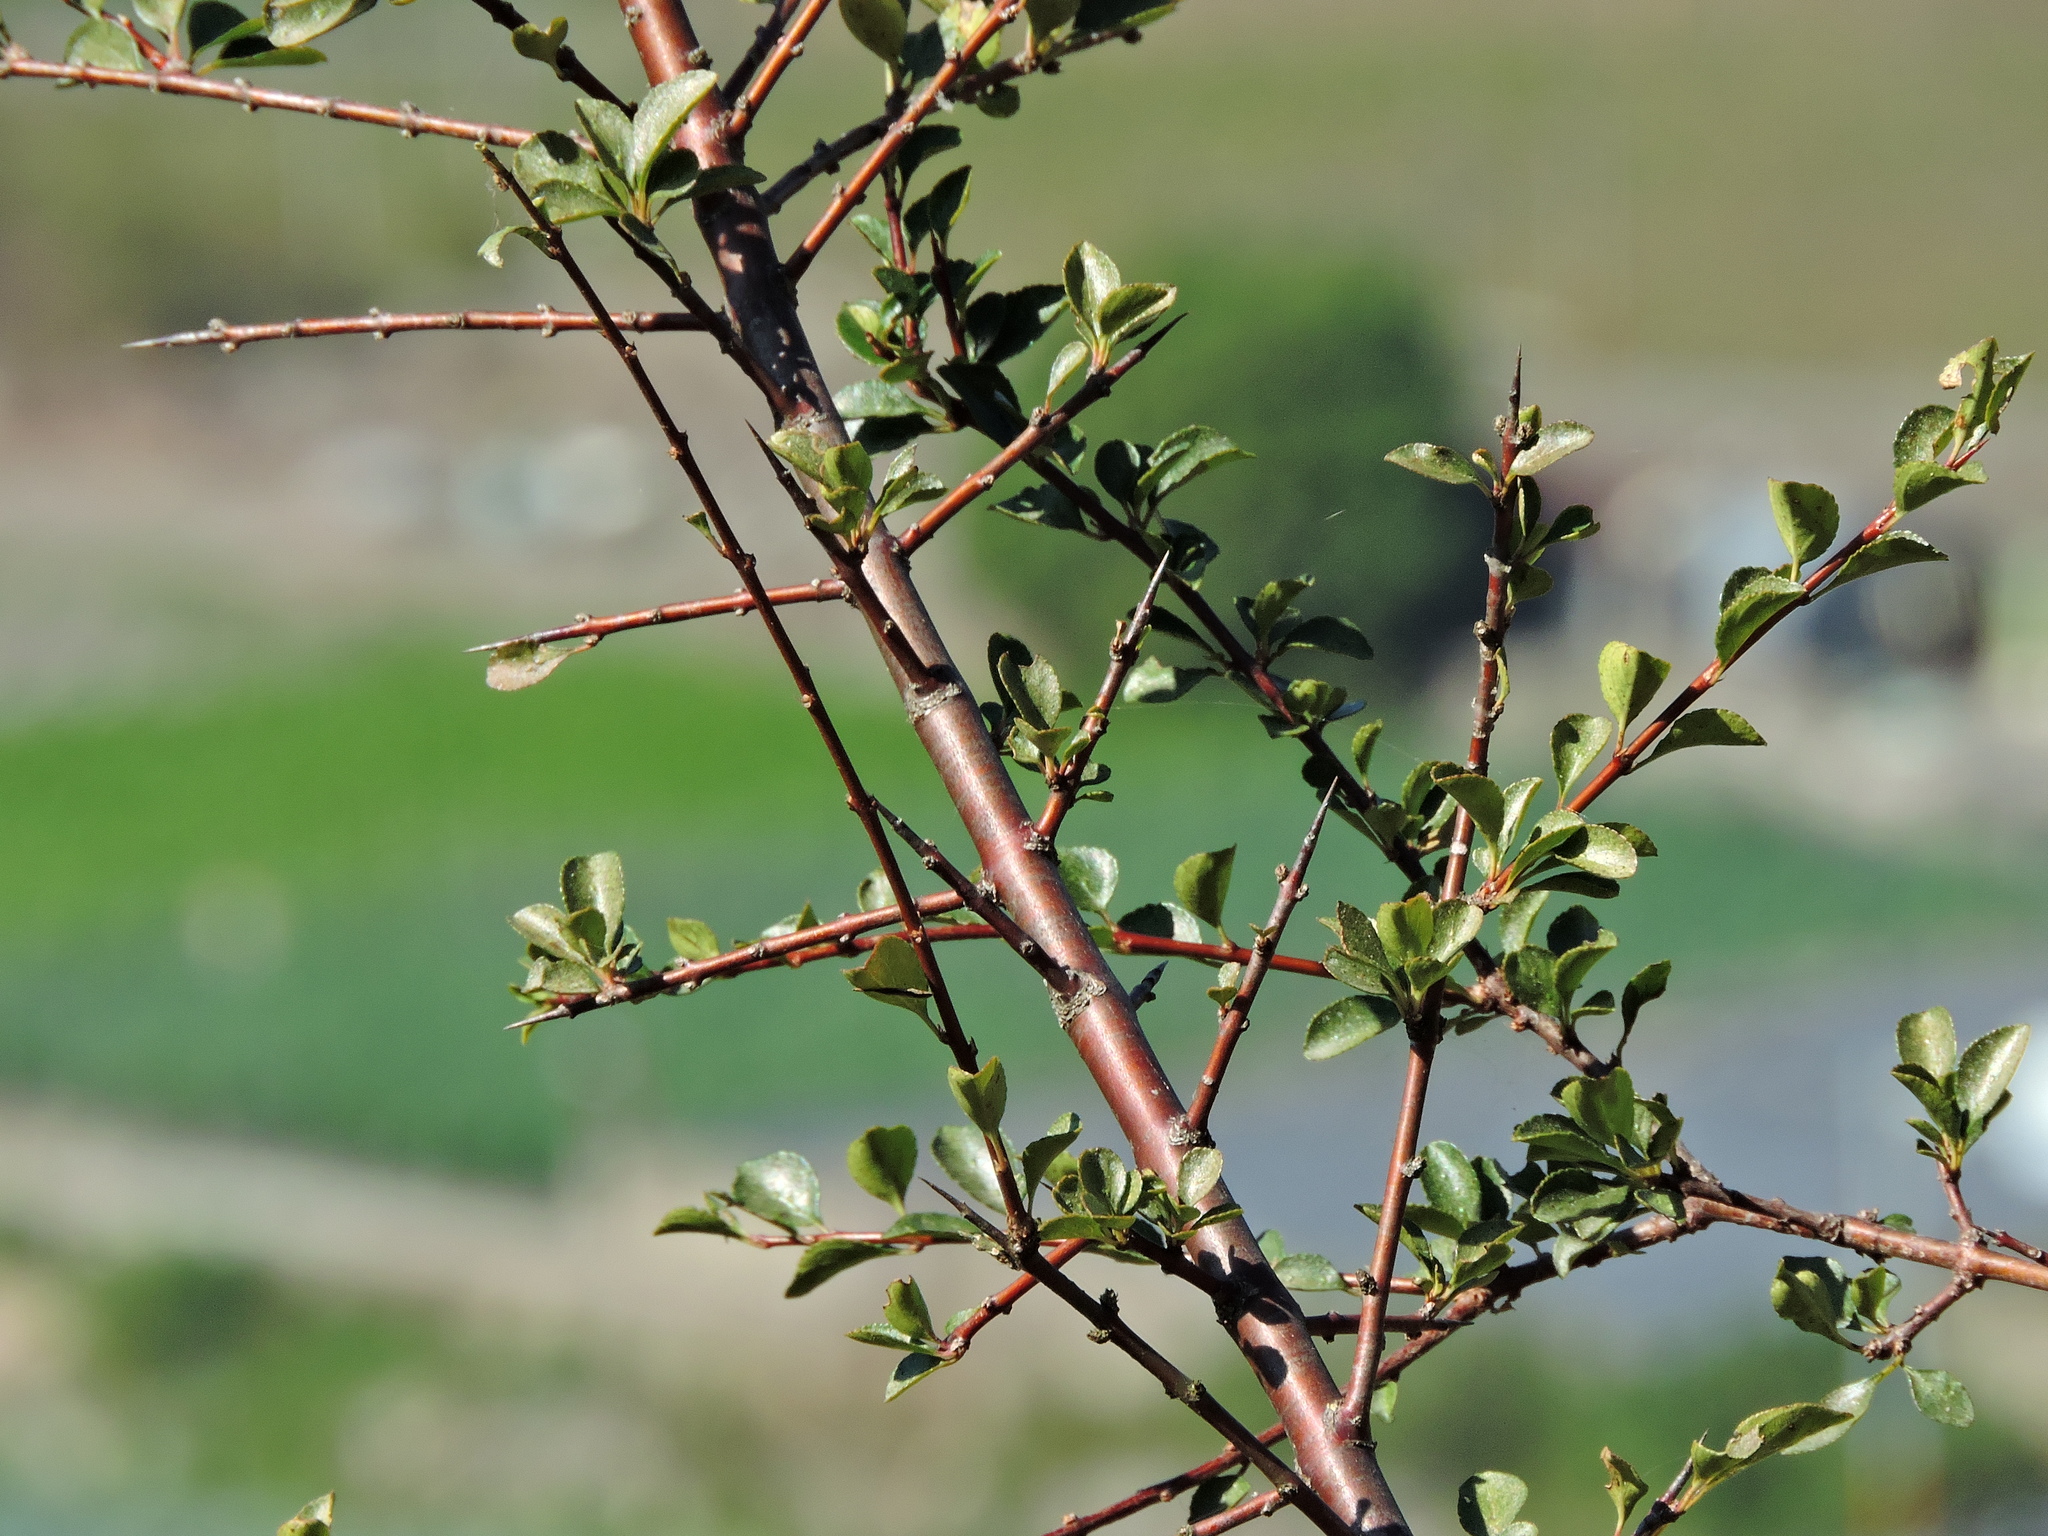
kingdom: Plantae
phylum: Tracheophyta
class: Magnoliopsida
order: Rosales
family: Rhamnaceae
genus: Rhamnus
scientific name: Rhamnus parvifolia
